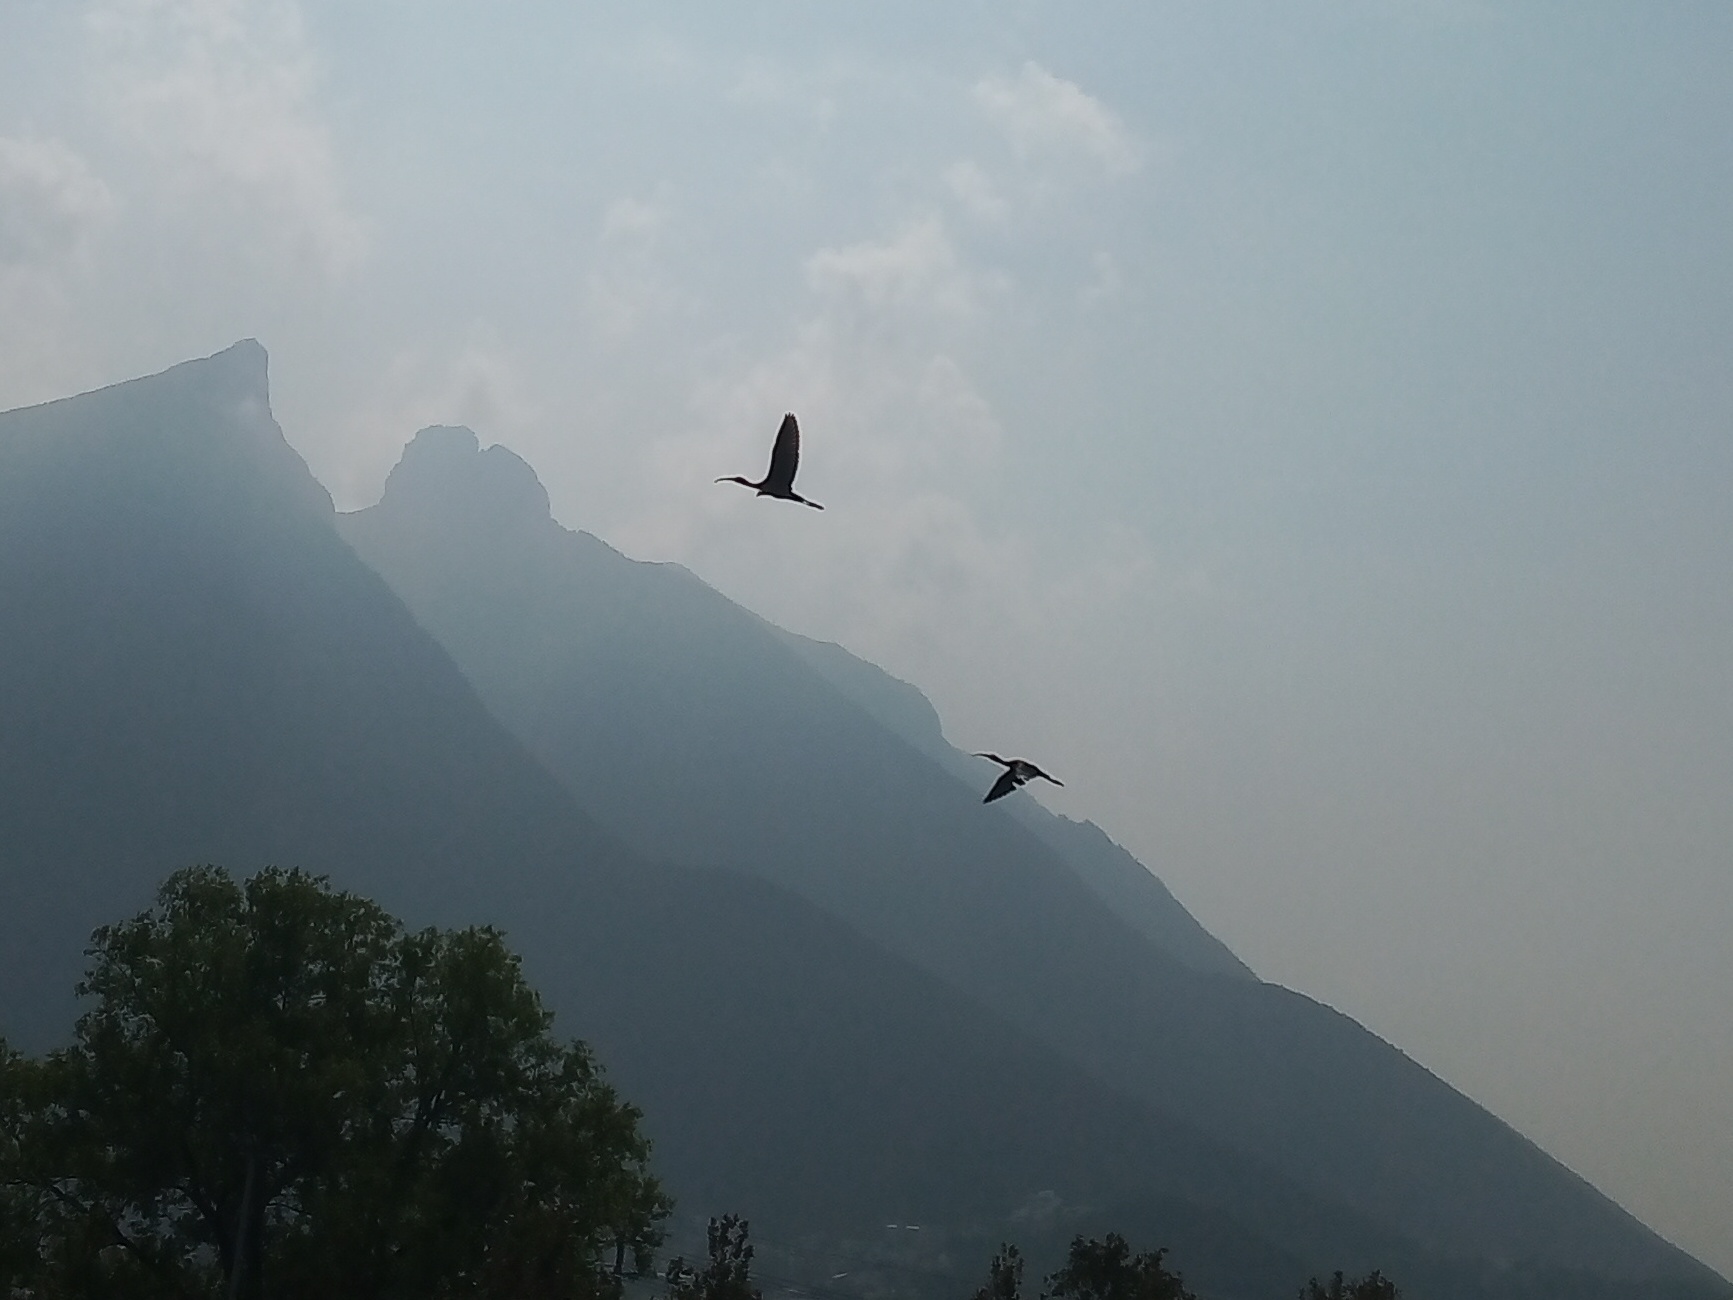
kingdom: Animalia
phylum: Chordata
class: Aves
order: Pelecaniformes
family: Threskiornithidae
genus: Plegadis
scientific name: Plegadis chihi
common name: White-faced ibis
